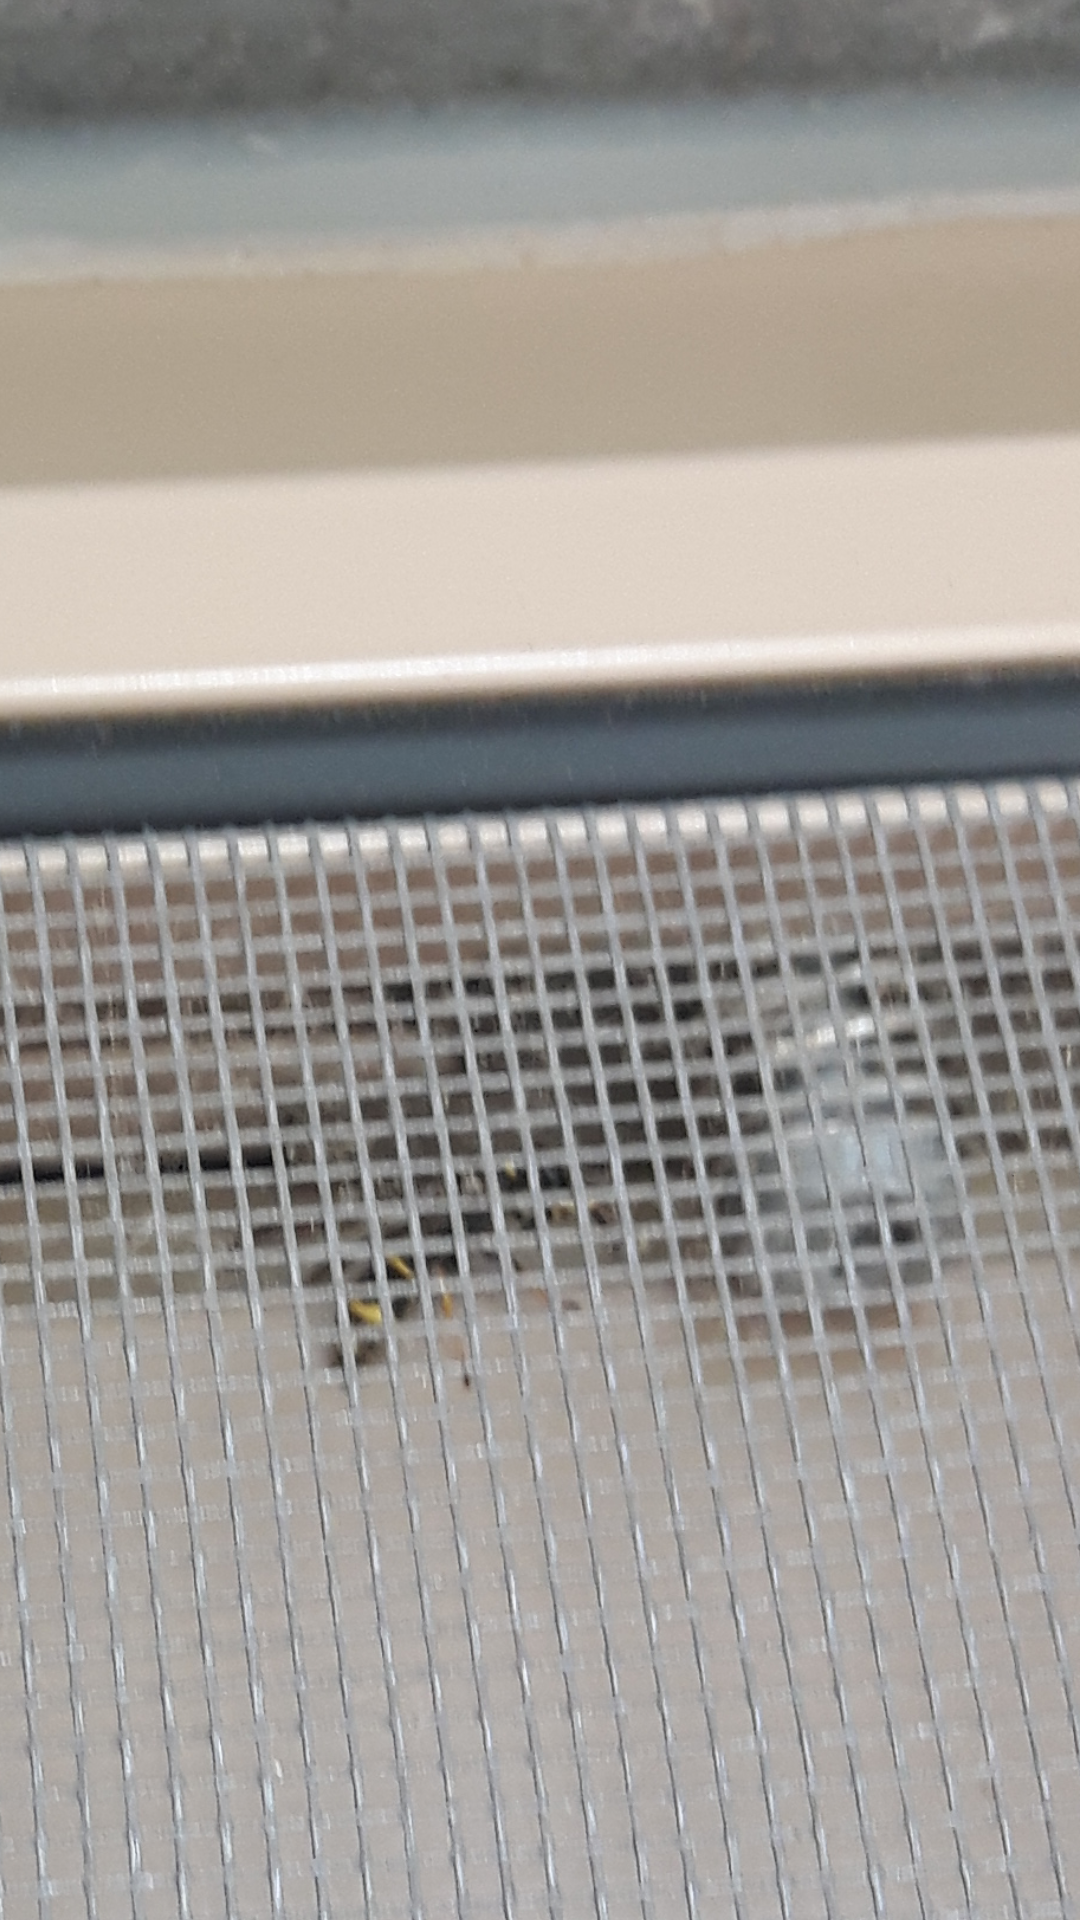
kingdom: Animalia
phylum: Arthropoda
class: Insecta
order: Hymenoptera
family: Eumenidae
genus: Polistes
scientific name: Polistes dominula
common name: Paper wasp
